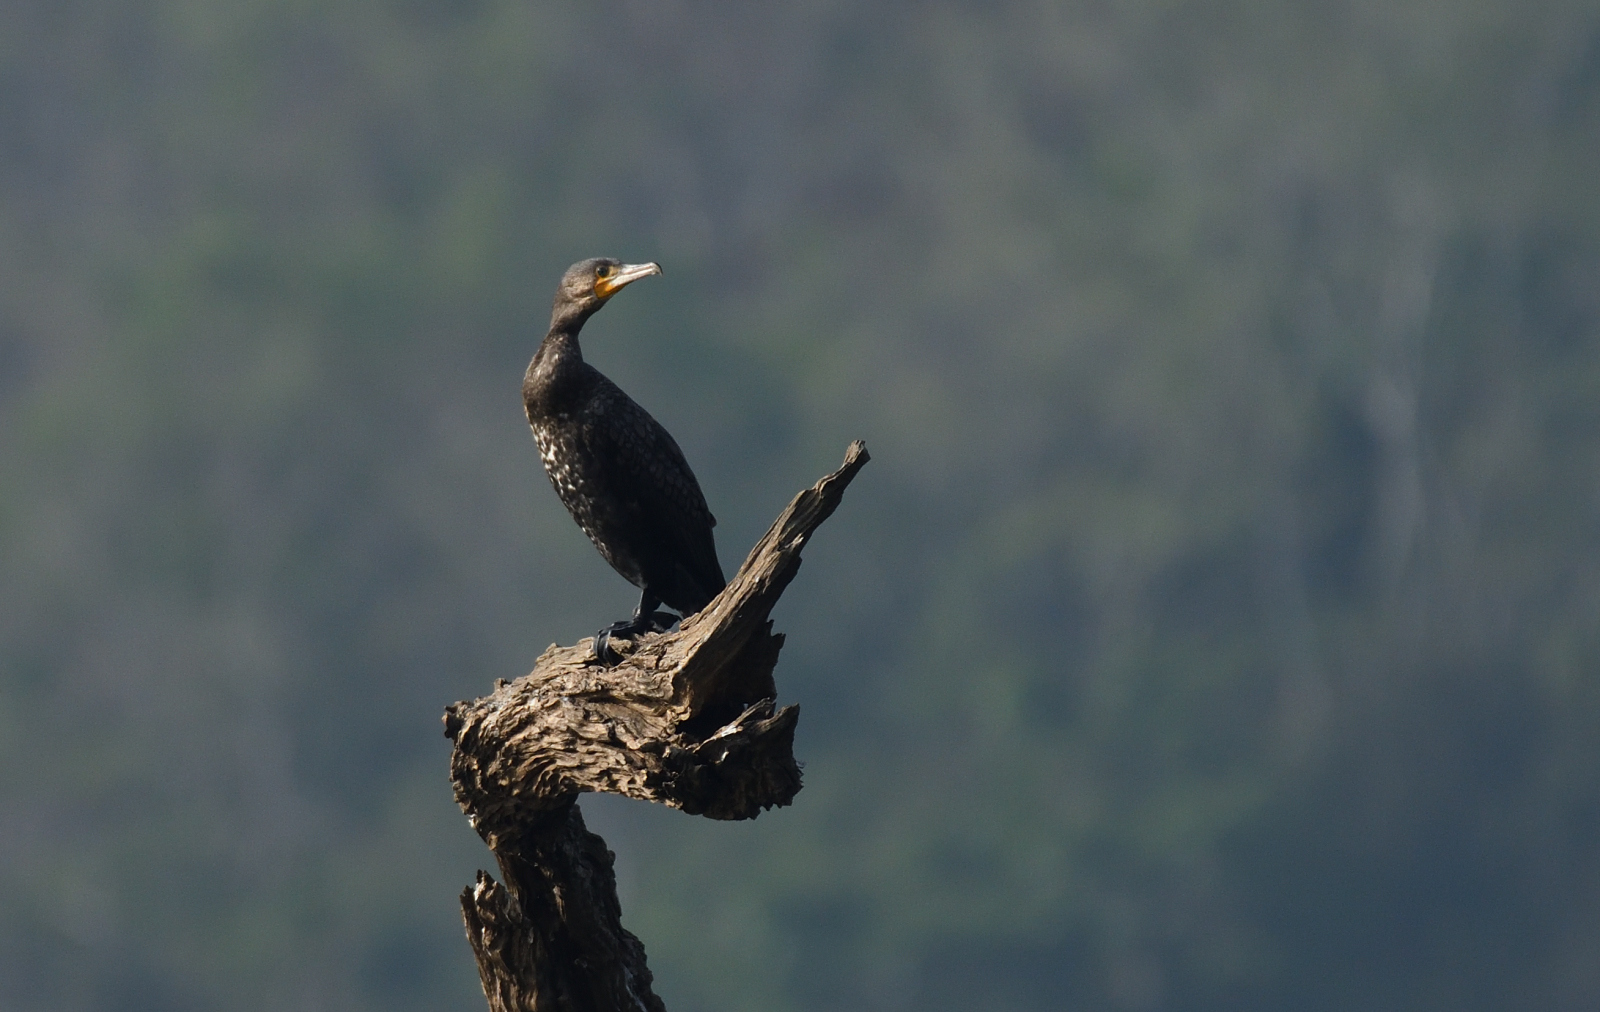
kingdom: Animalia
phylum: Chordata
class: Aves
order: Suliformes
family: Phalacrocoracidae
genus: Phalacrocorax
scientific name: Phalacrocorax carbo
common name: Great cormorant
